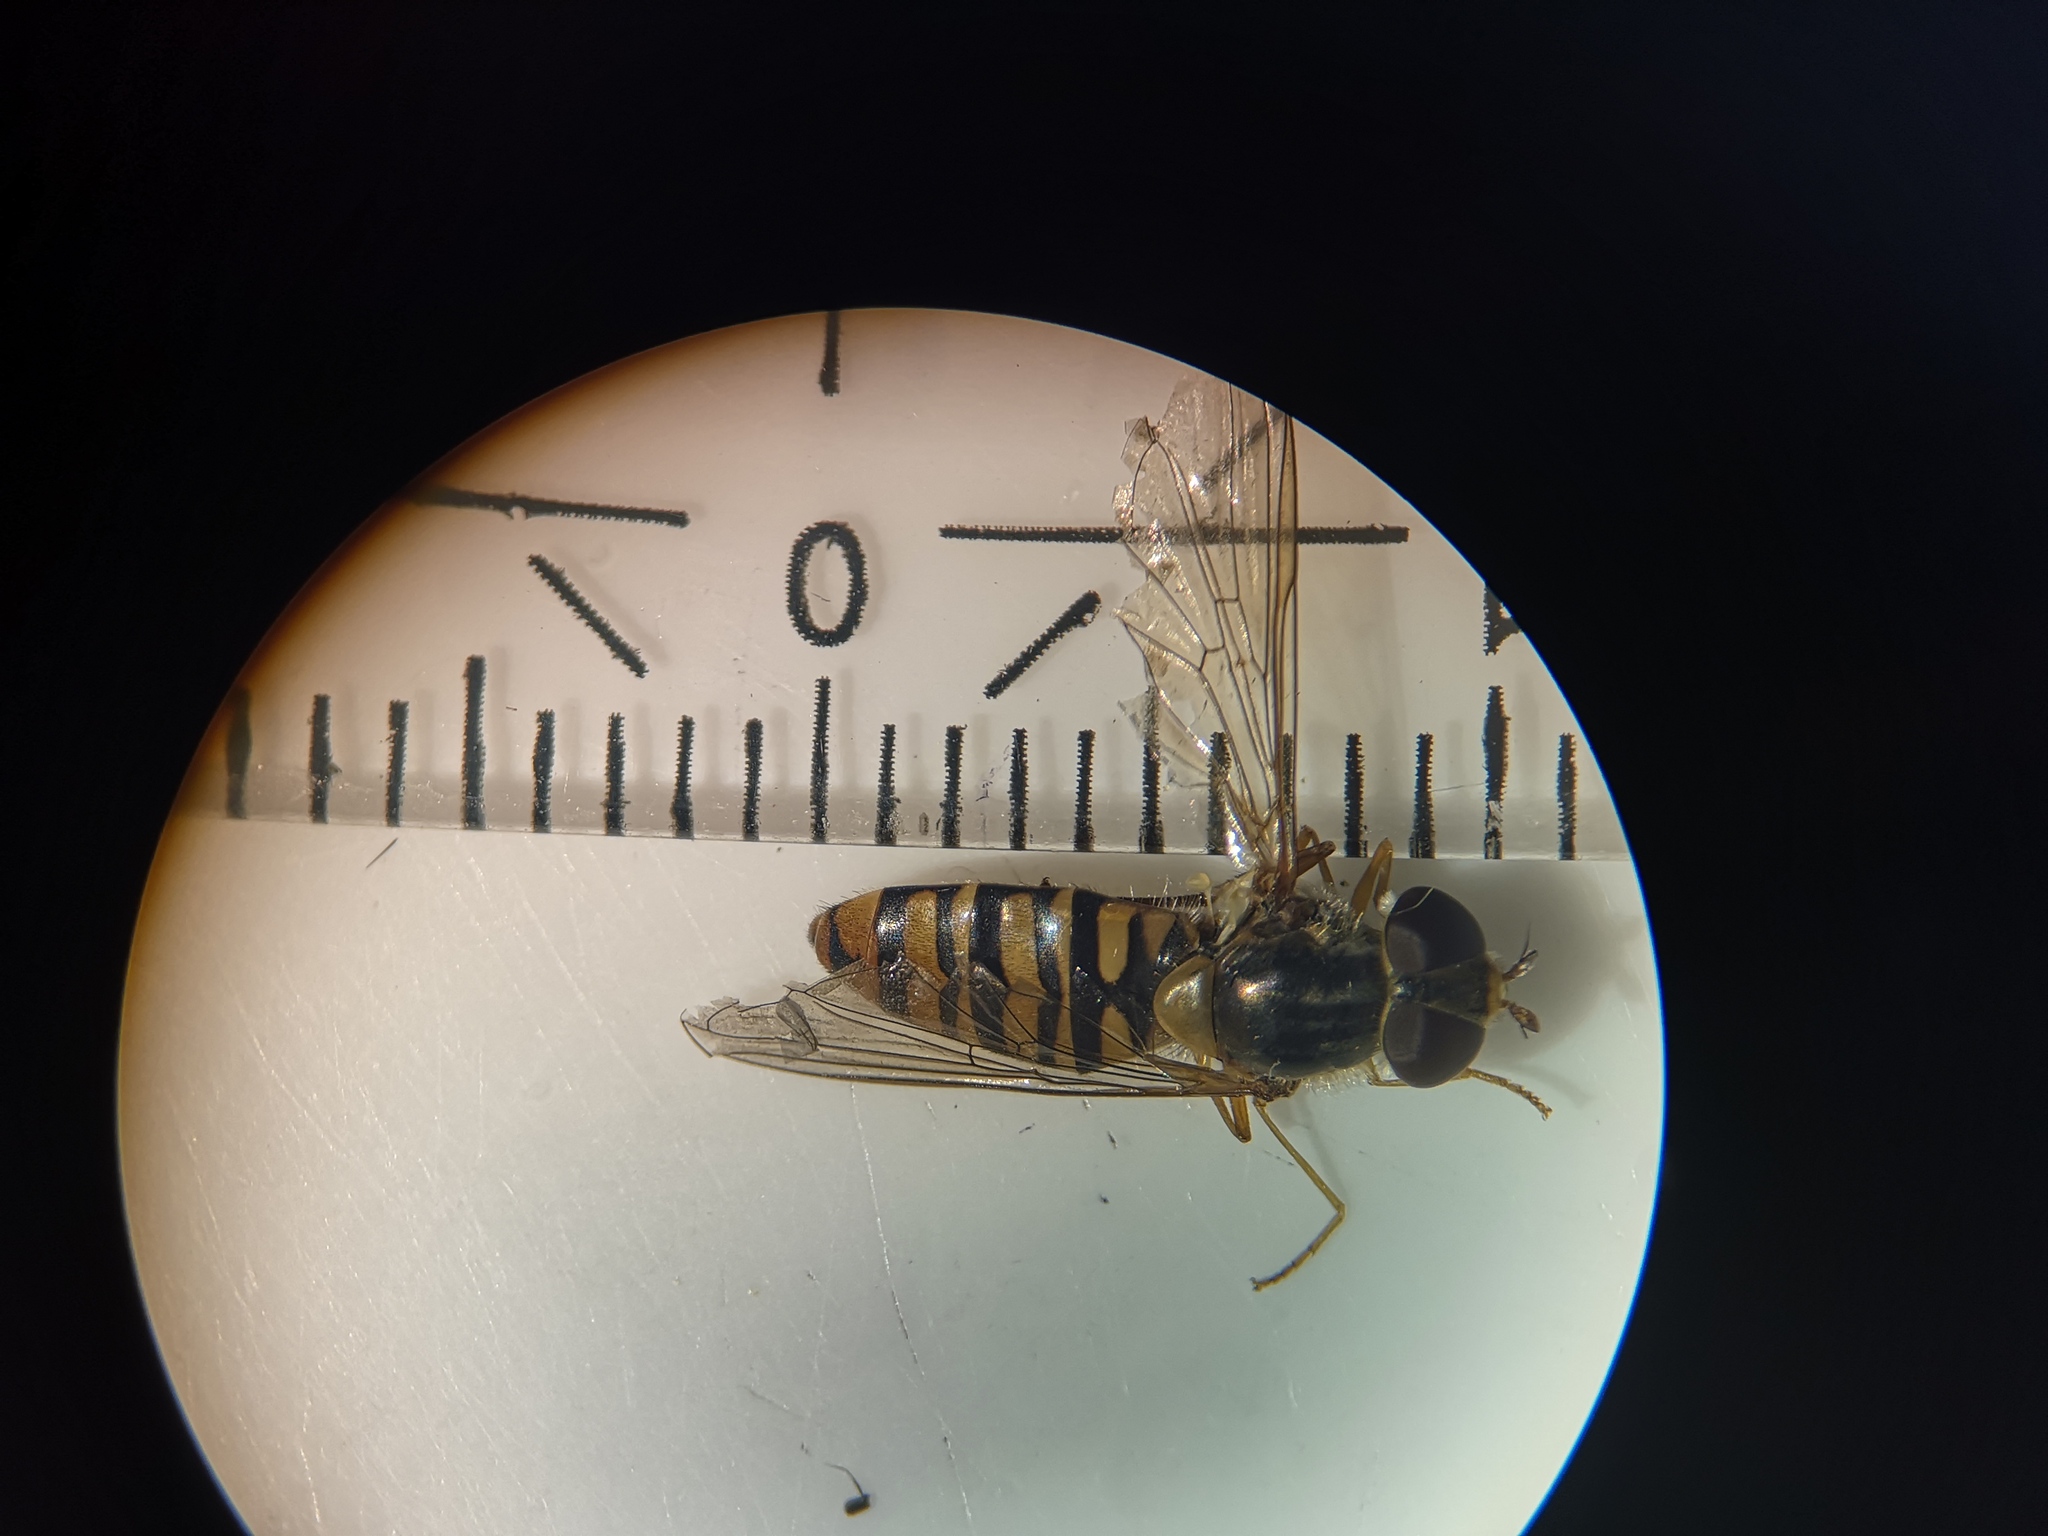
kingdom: Animalia
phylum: Arthropoda
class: Insecta
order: Diptera
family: Syrphidae
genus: Episyrphus
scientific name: Episyrphus balteatus
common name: Marmalade hoverfly
